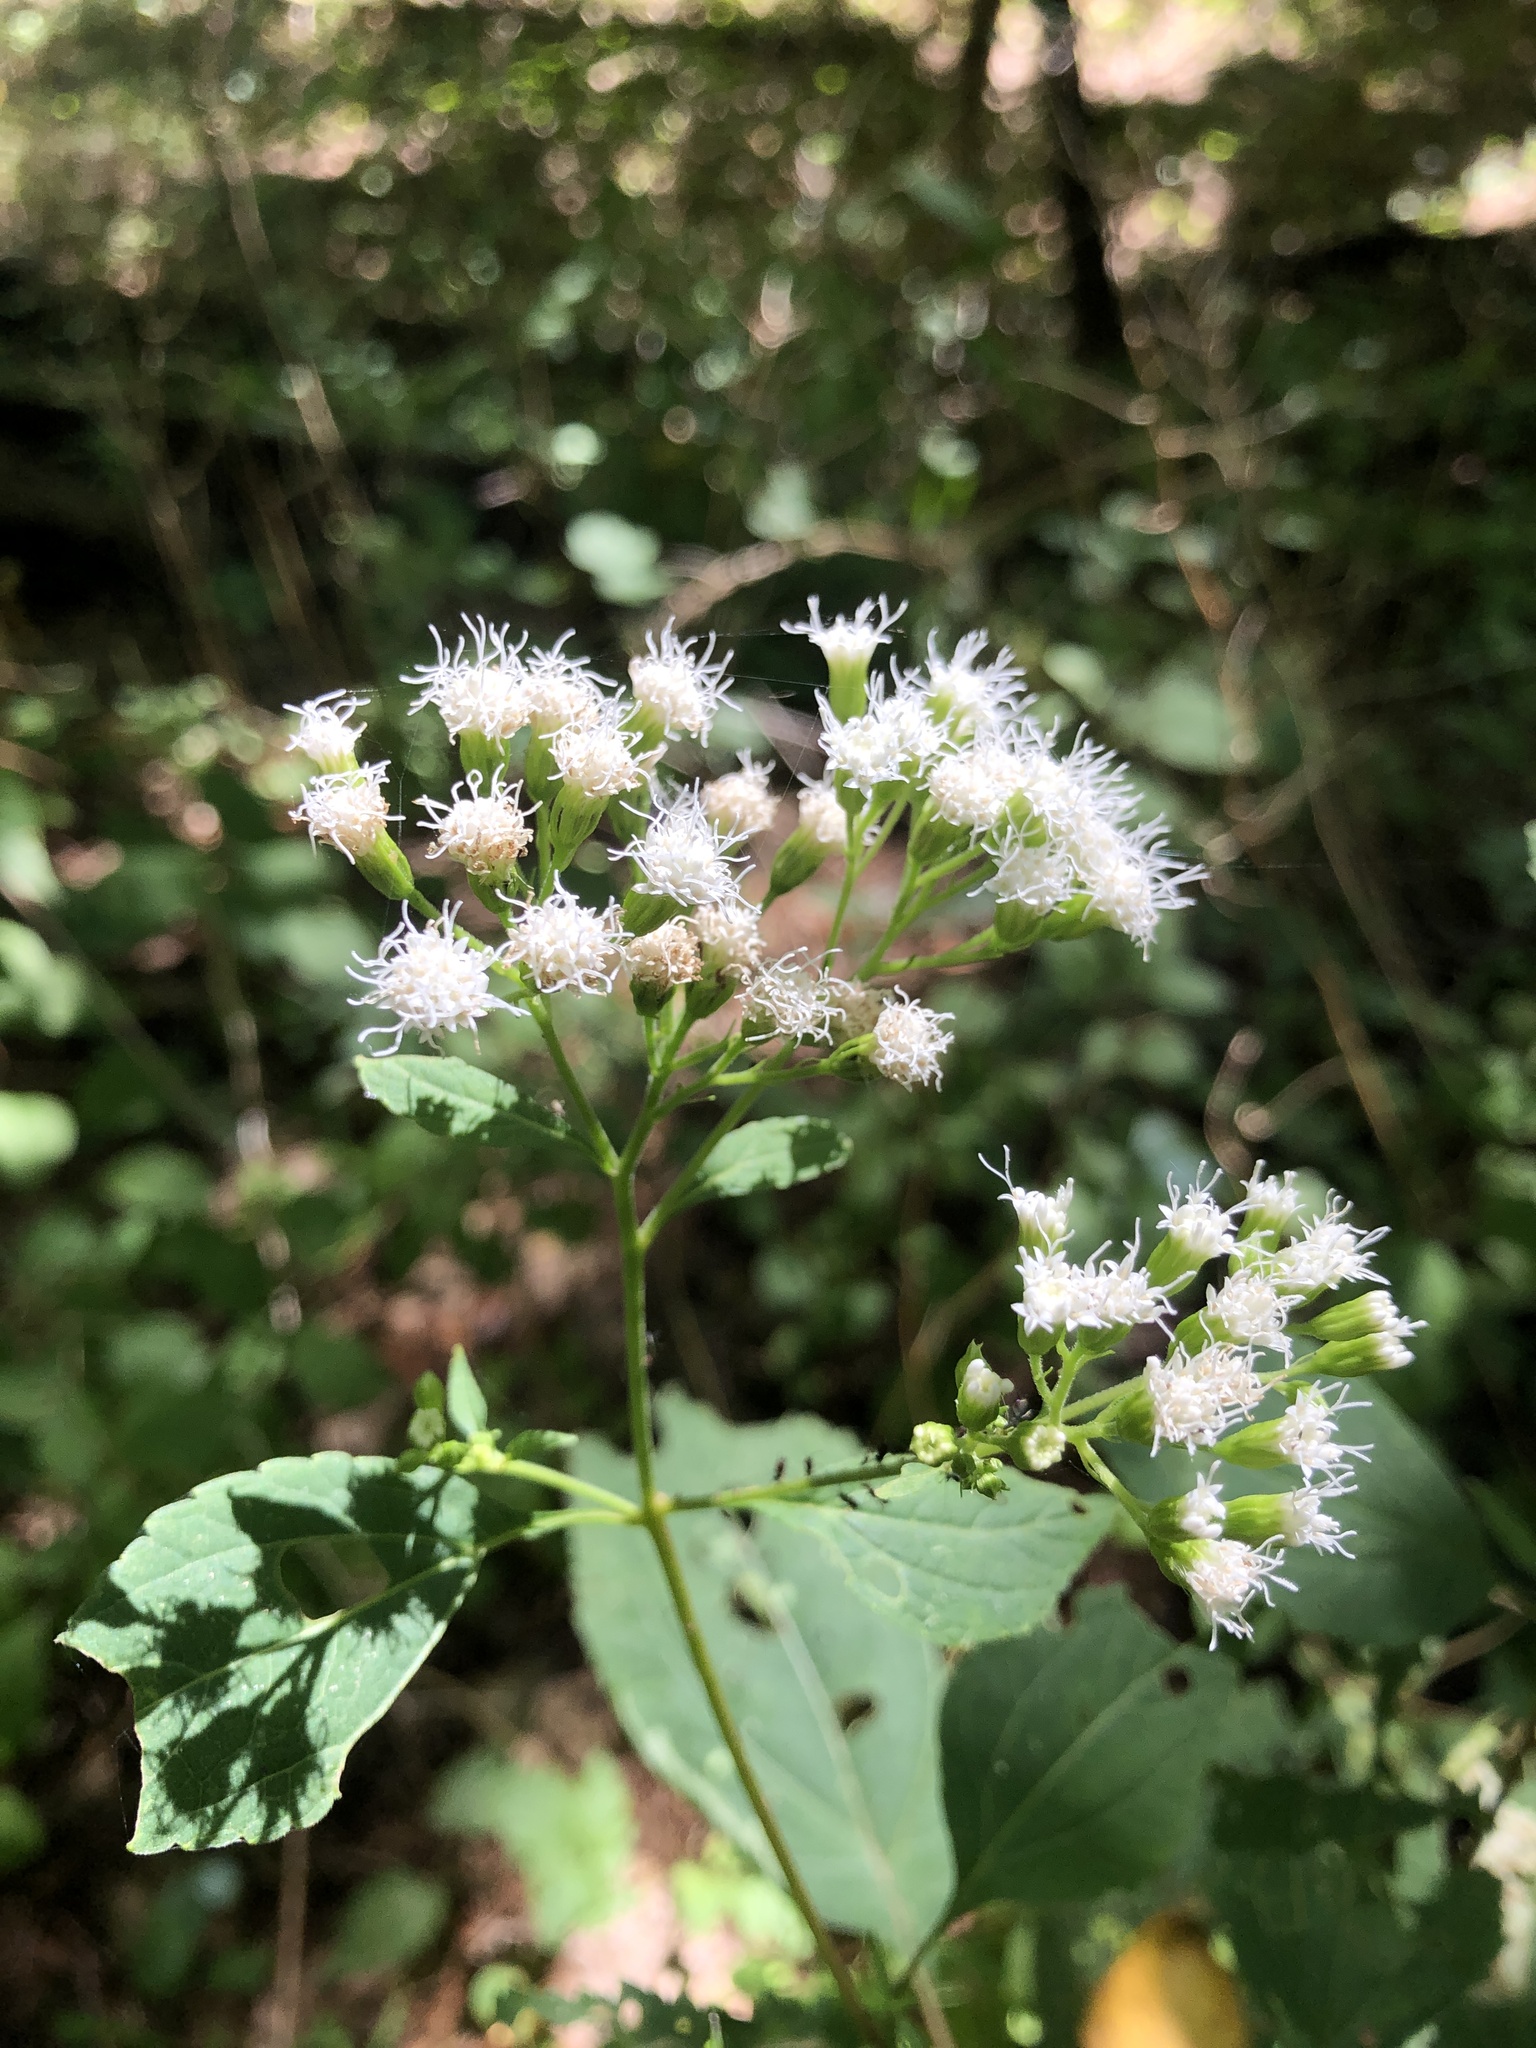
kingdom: Plantae
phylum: Tracheophyta
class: Magnoliopsida
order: Asterales
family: Asteraceae
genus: Ageratina
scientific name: Ageratina altissima
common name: White snakeroot
